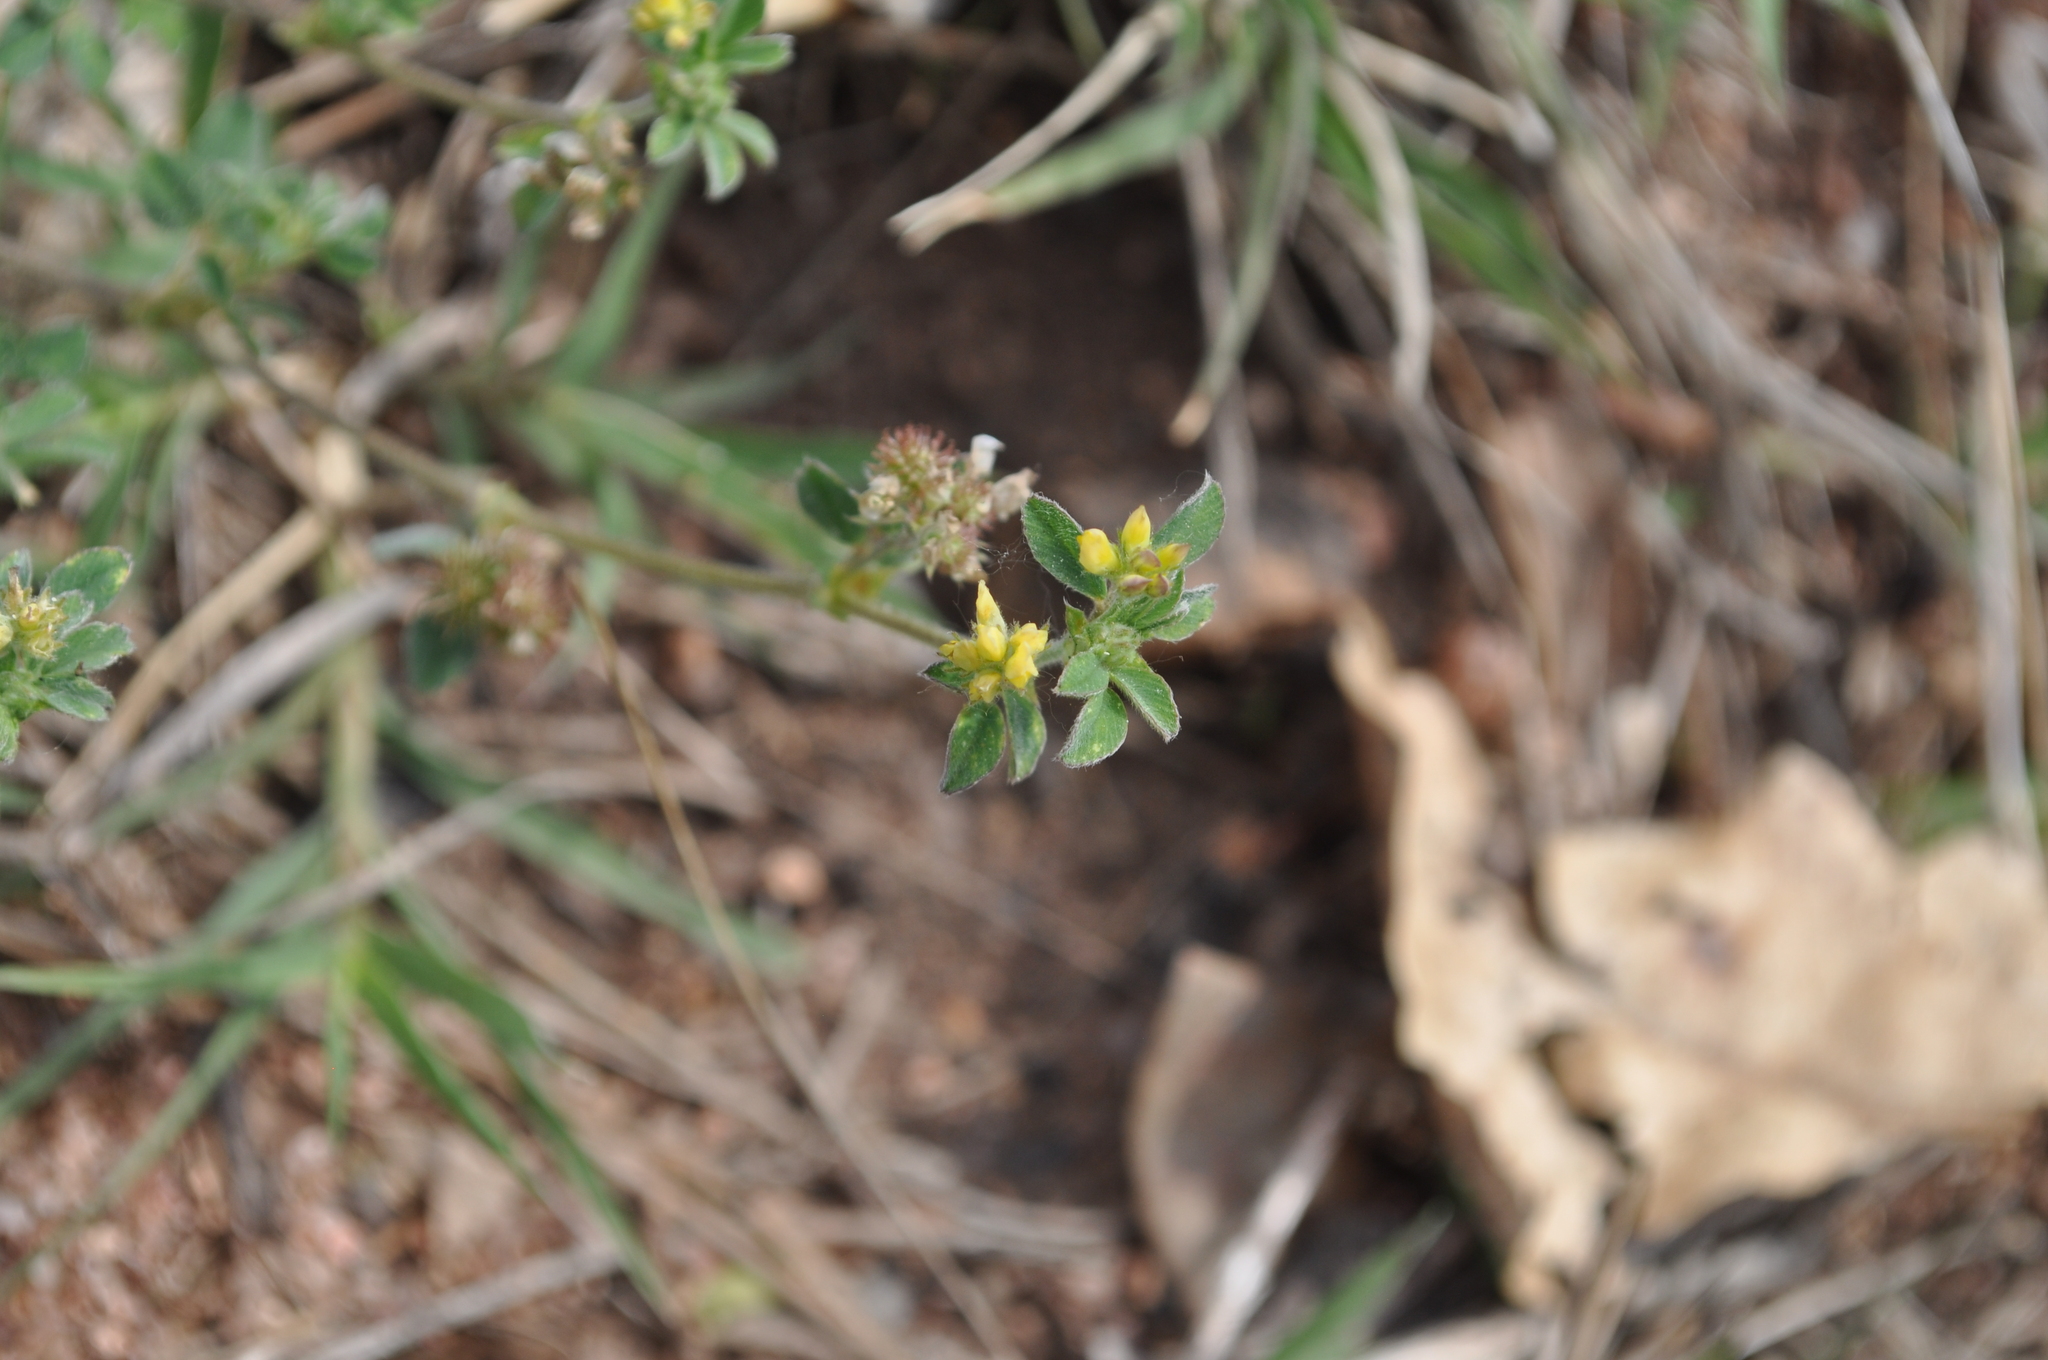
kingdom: Plantae
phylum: Tracheophyta
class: Magnoliopsida
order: Fabales
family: Fabaceae
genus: Medicago
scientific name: Medicago minima
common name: Little bur-clover
